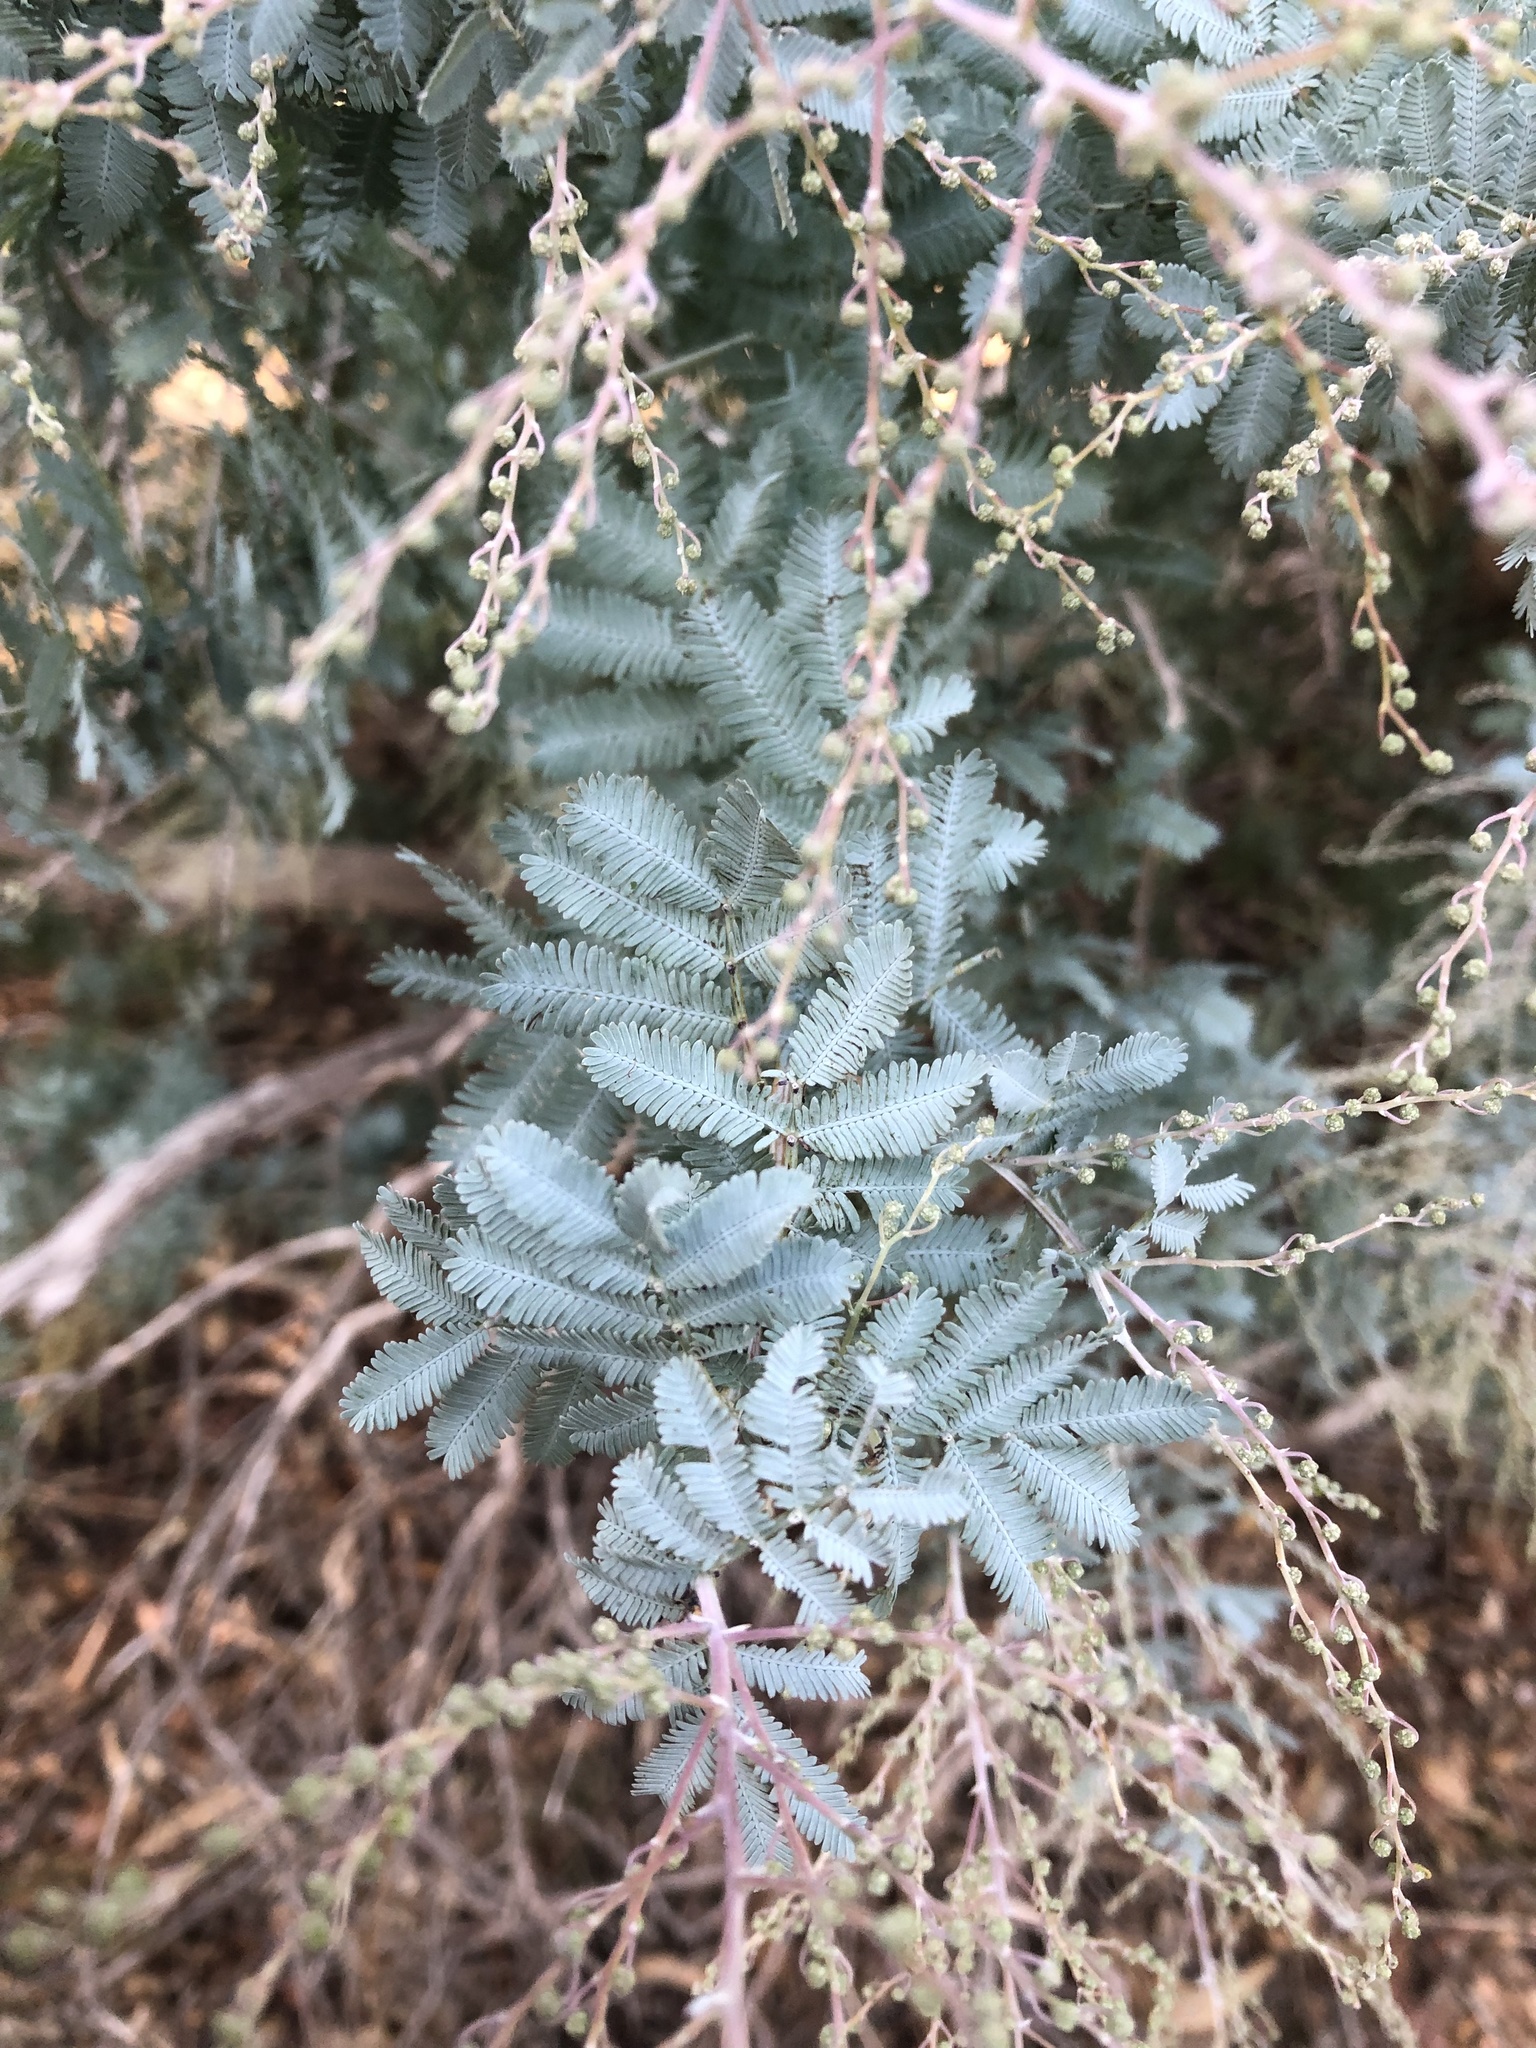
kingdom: Plantae
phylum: Tracheophyta
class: Magnoliopsida
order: Fabales
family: Fabaceae
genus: Acacia
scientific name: Acacia baileyana
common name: Cootamundra wattle
